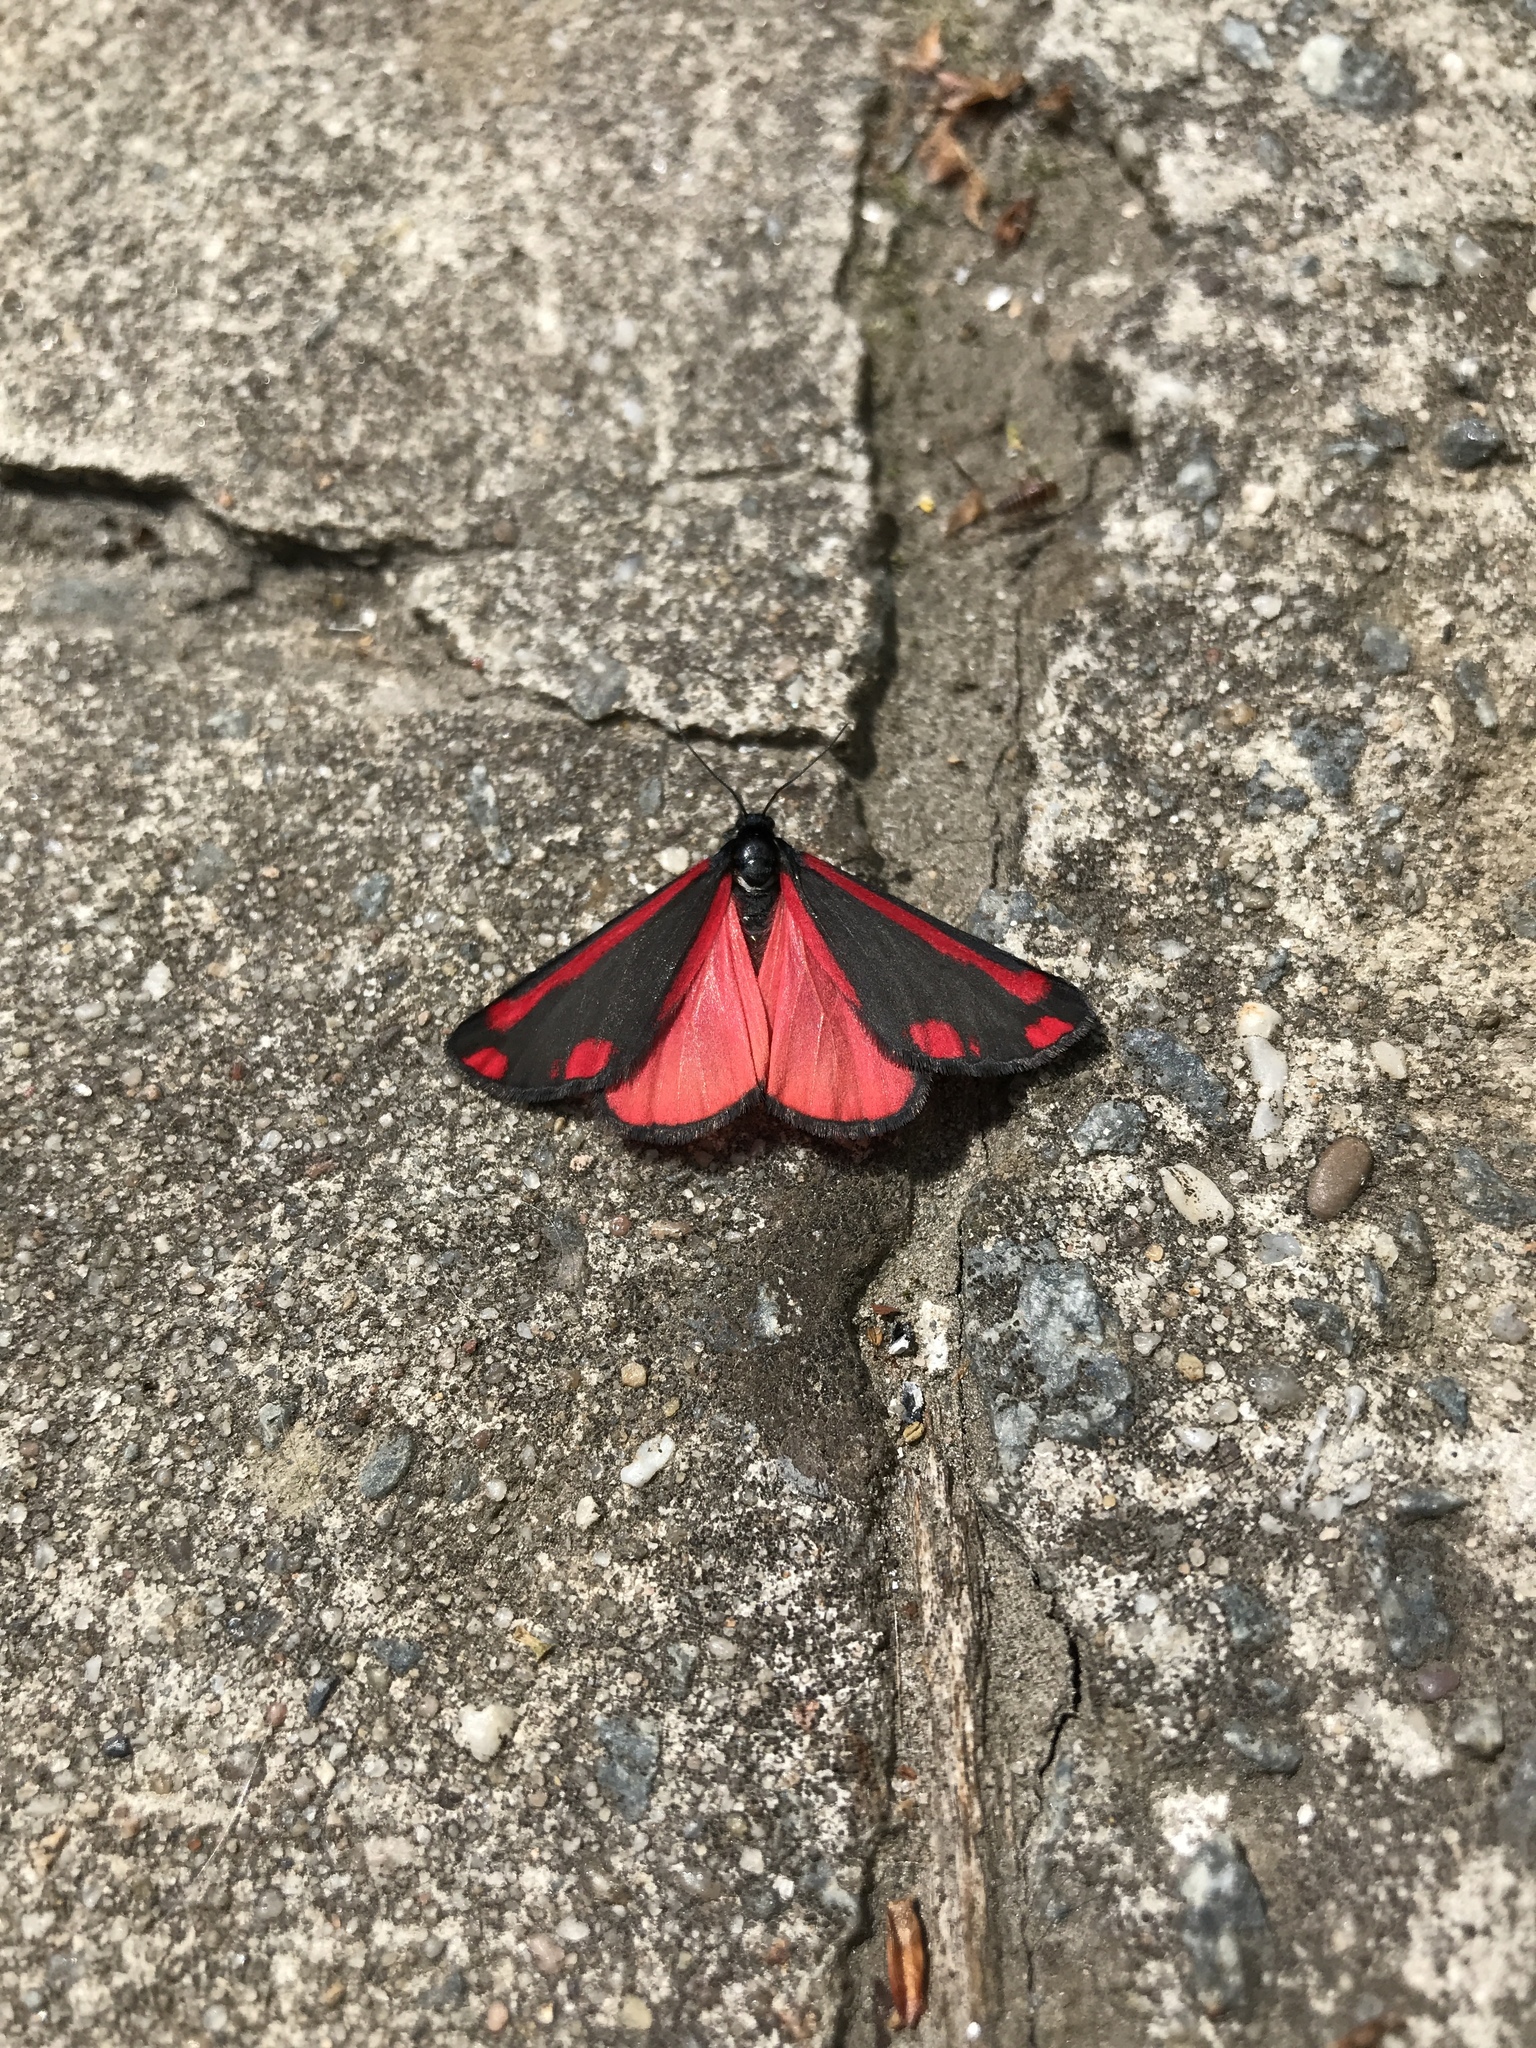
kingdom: Animalia
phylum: Arthropoda
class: Insecta
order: Lepidoptera
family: Erebidae
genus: Tyria
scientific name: Tyria jacobaeae
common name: Cinnabar
